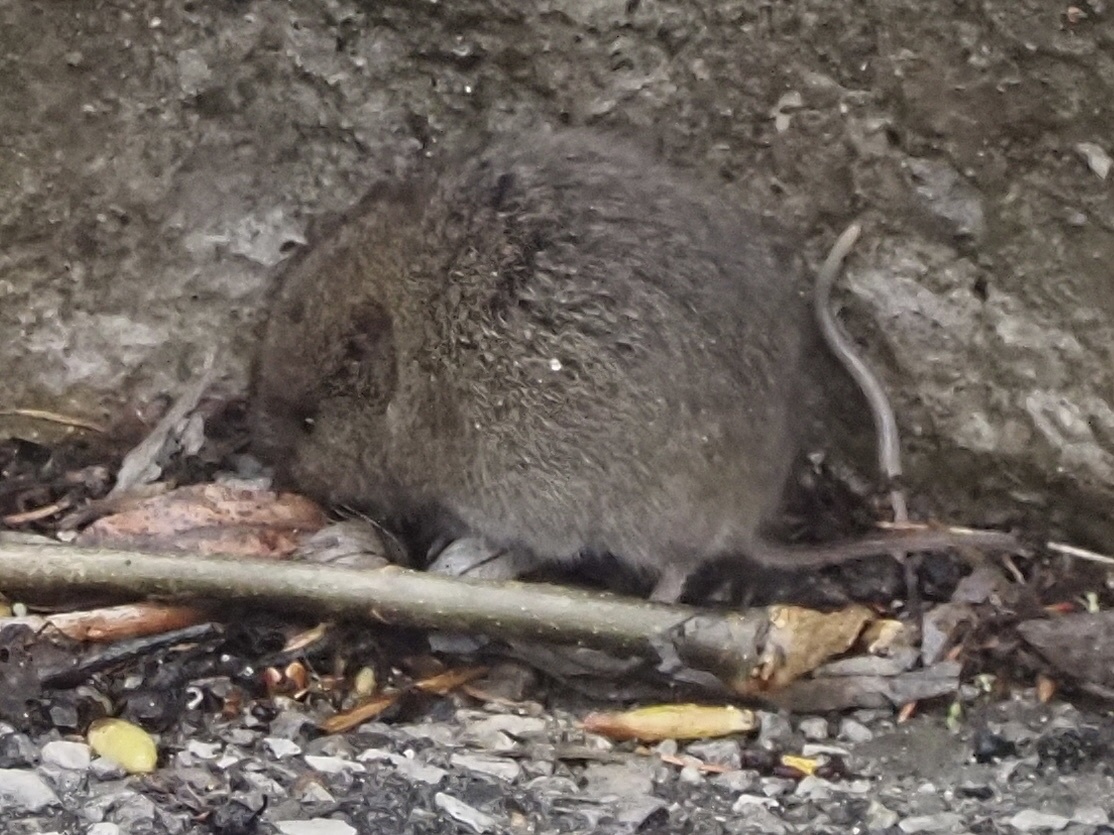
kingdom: Animalia
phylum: Chordata
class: Mammalia
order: Rodentia
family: Cricetidae
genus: Microtus
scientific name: Microtus pennsylvanicus
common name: Meadow vole
